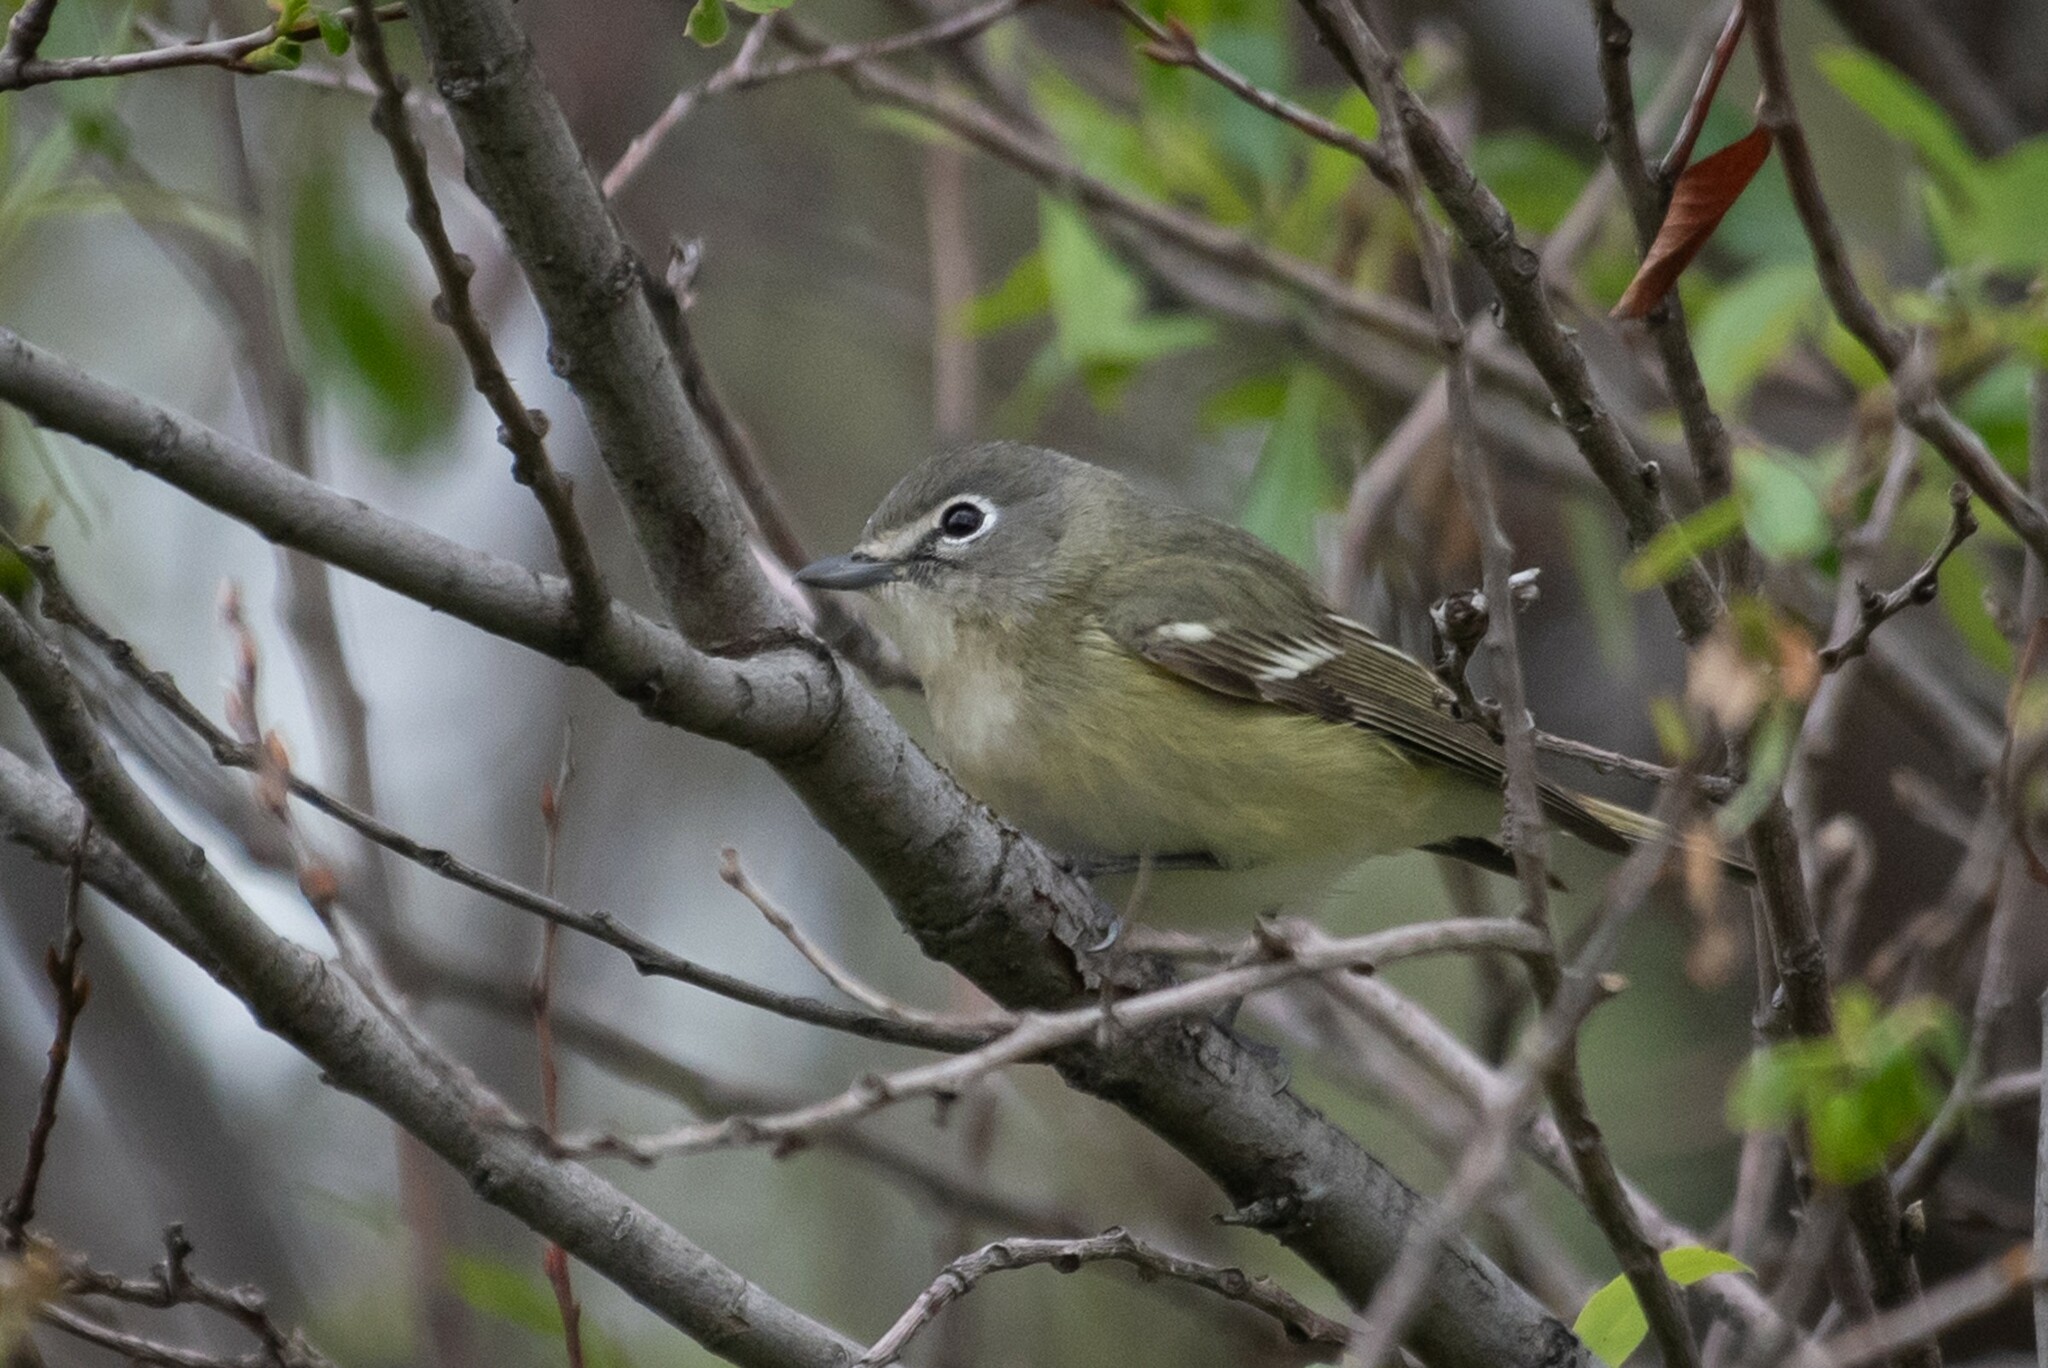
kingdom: Animalia
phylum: Chordata
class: Aves
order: Passeriformes
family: Vireonidae
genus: Vireo
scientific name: Vireo cassinii
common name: Cassin's vireo
